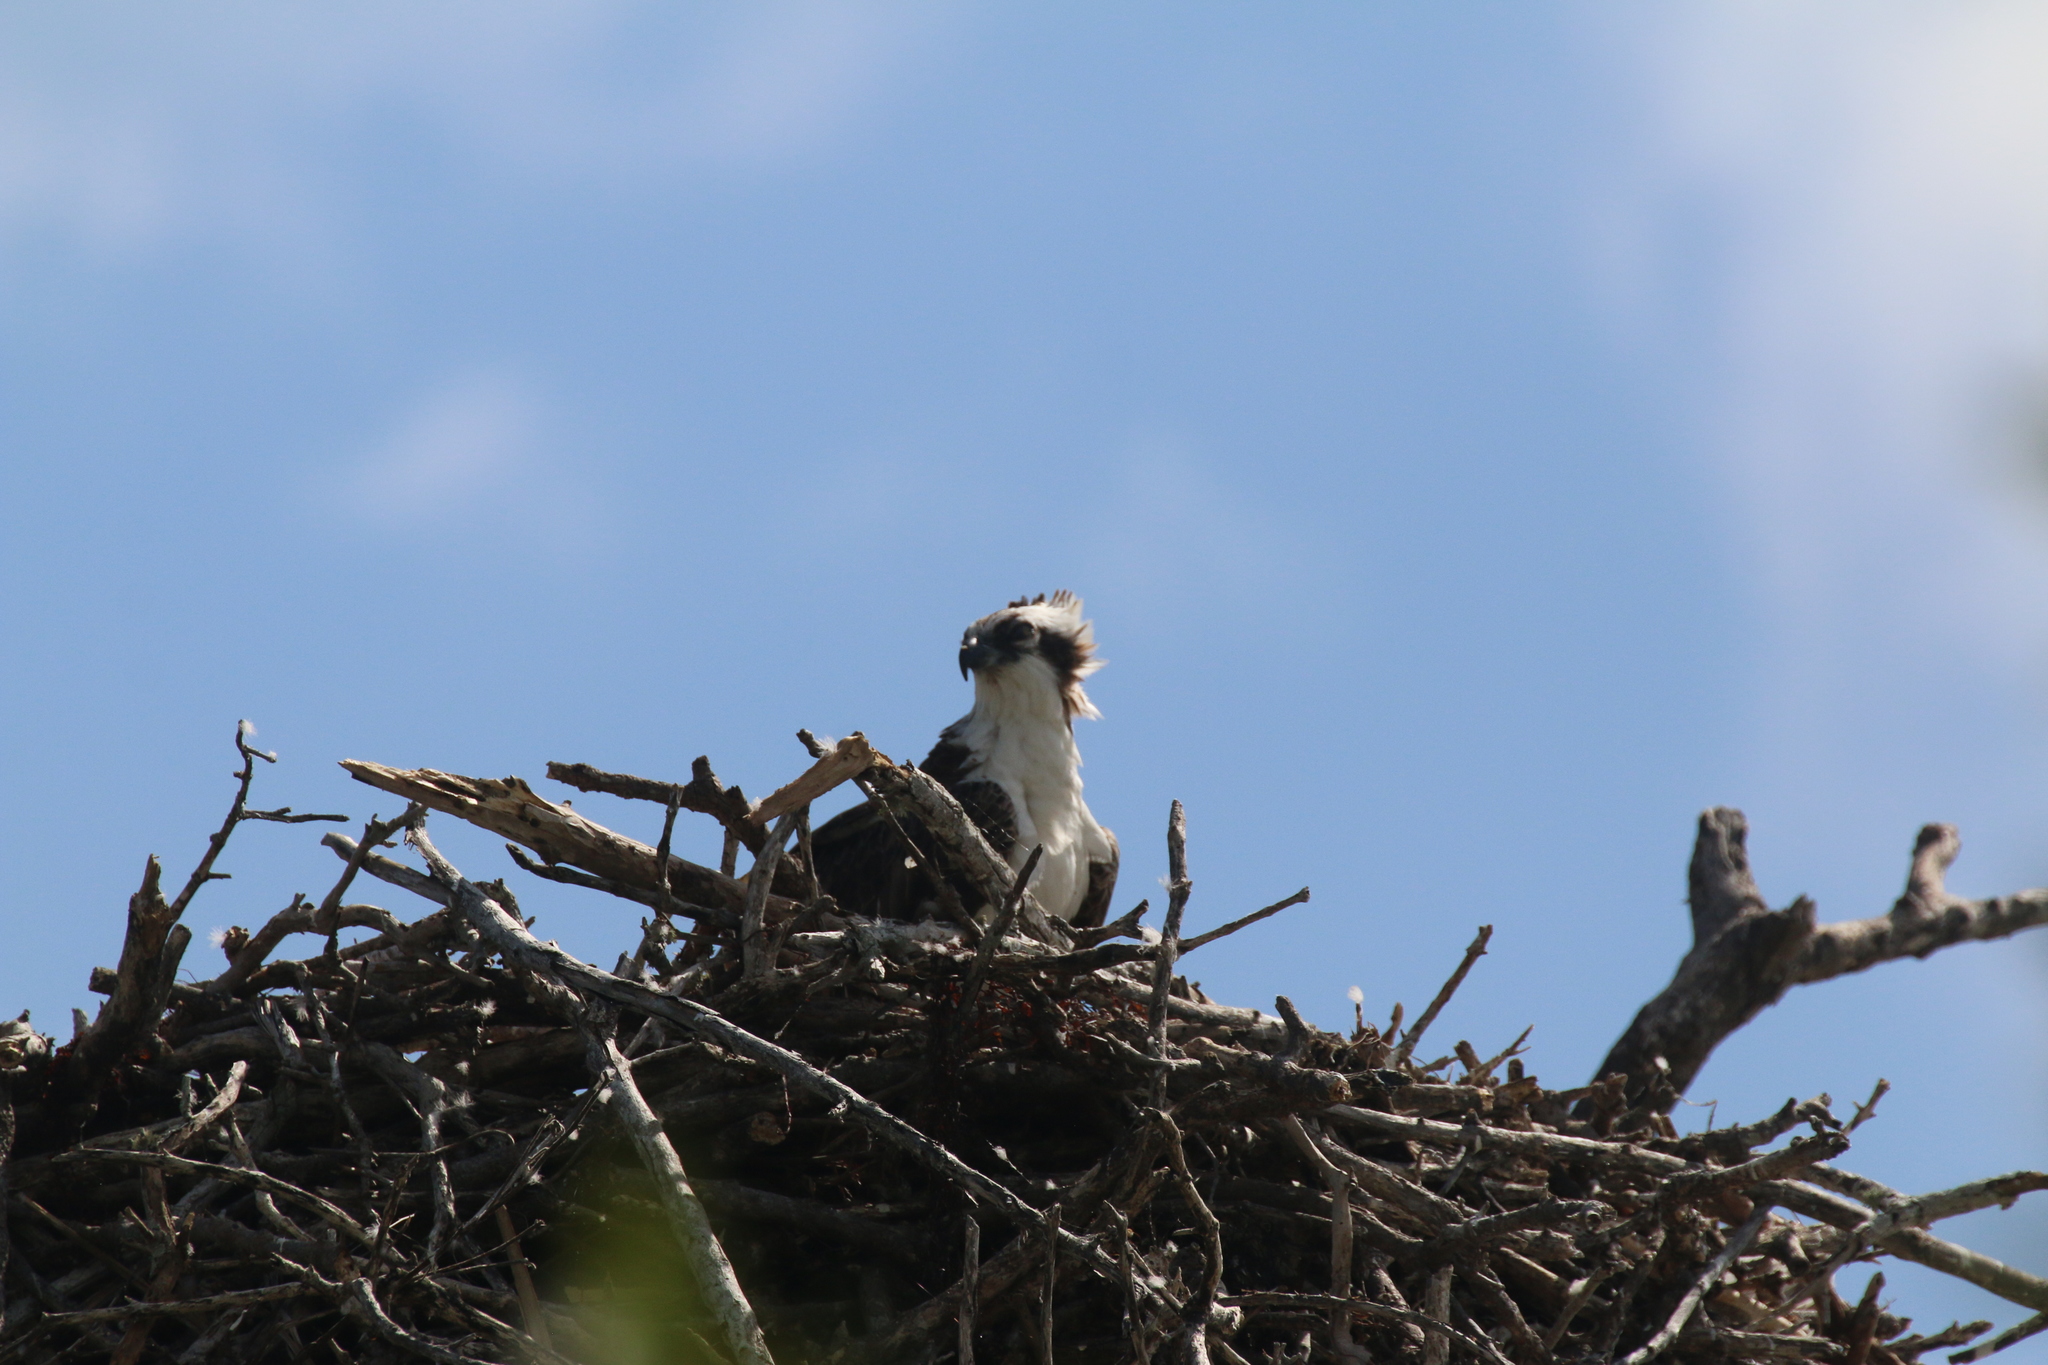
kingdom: Animalia
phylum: Chordata
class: Aves
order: Accipitriformes
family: Pandionidae
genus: Pandion
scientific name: Pandion haliaetus
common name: Osprey
